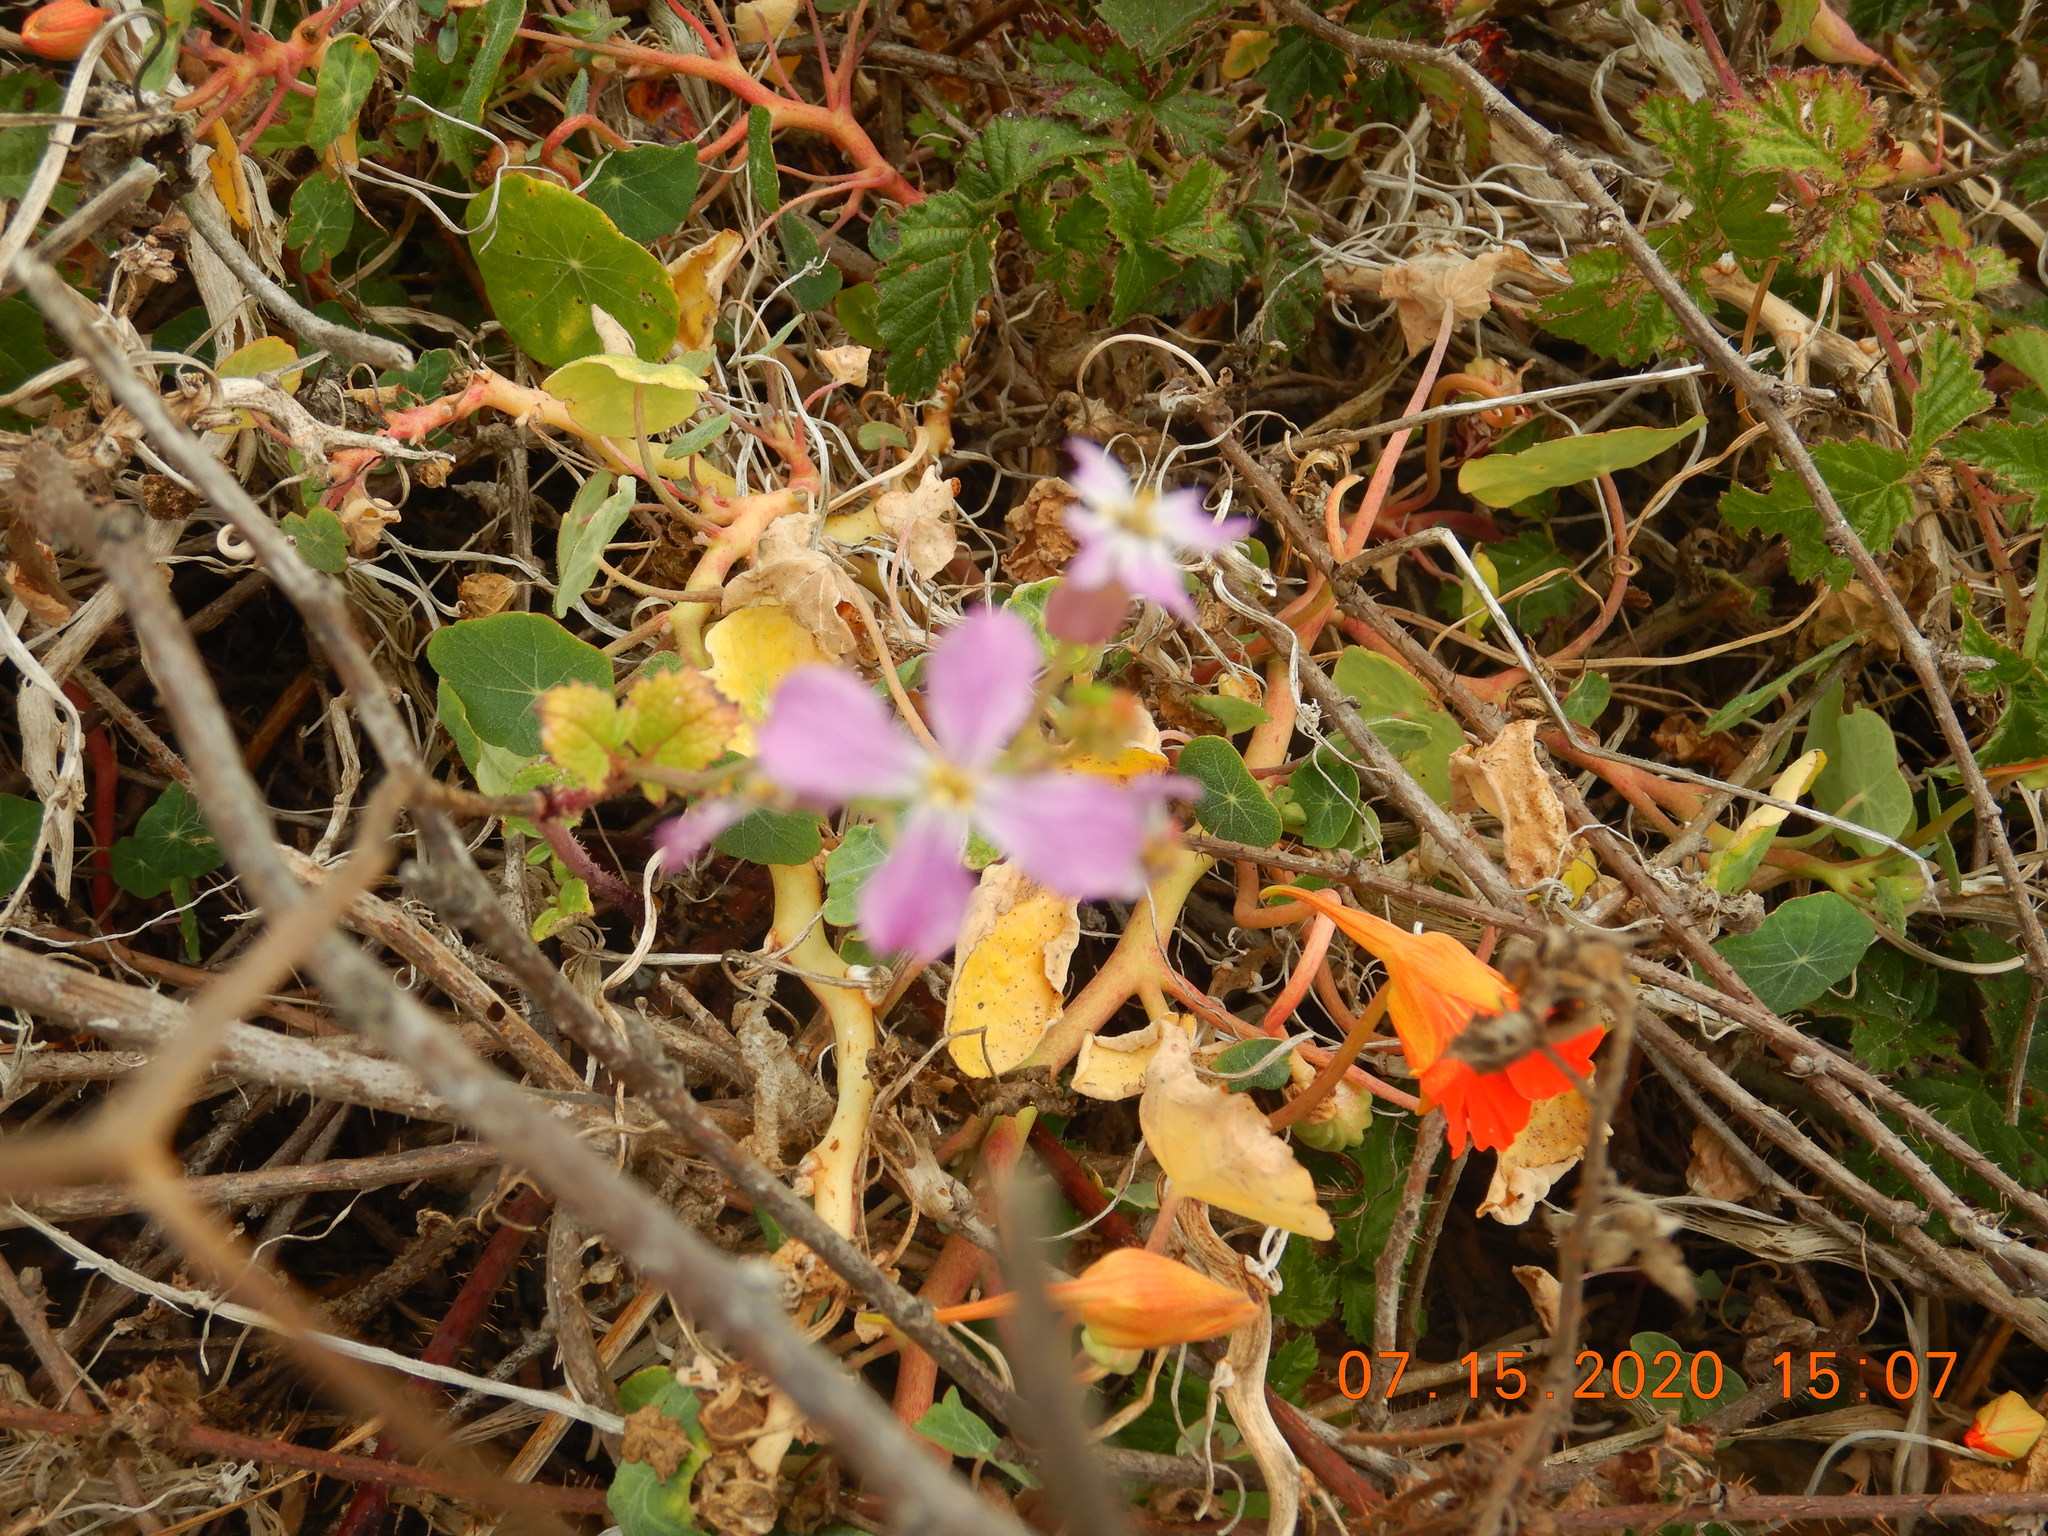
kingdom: Plantae
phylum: Tracheophyta
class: Magnoliopsida
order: Brassicales
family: Brassicaceae
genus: Raphanus
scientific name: Raphanus sativus
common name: Cultivated radish
